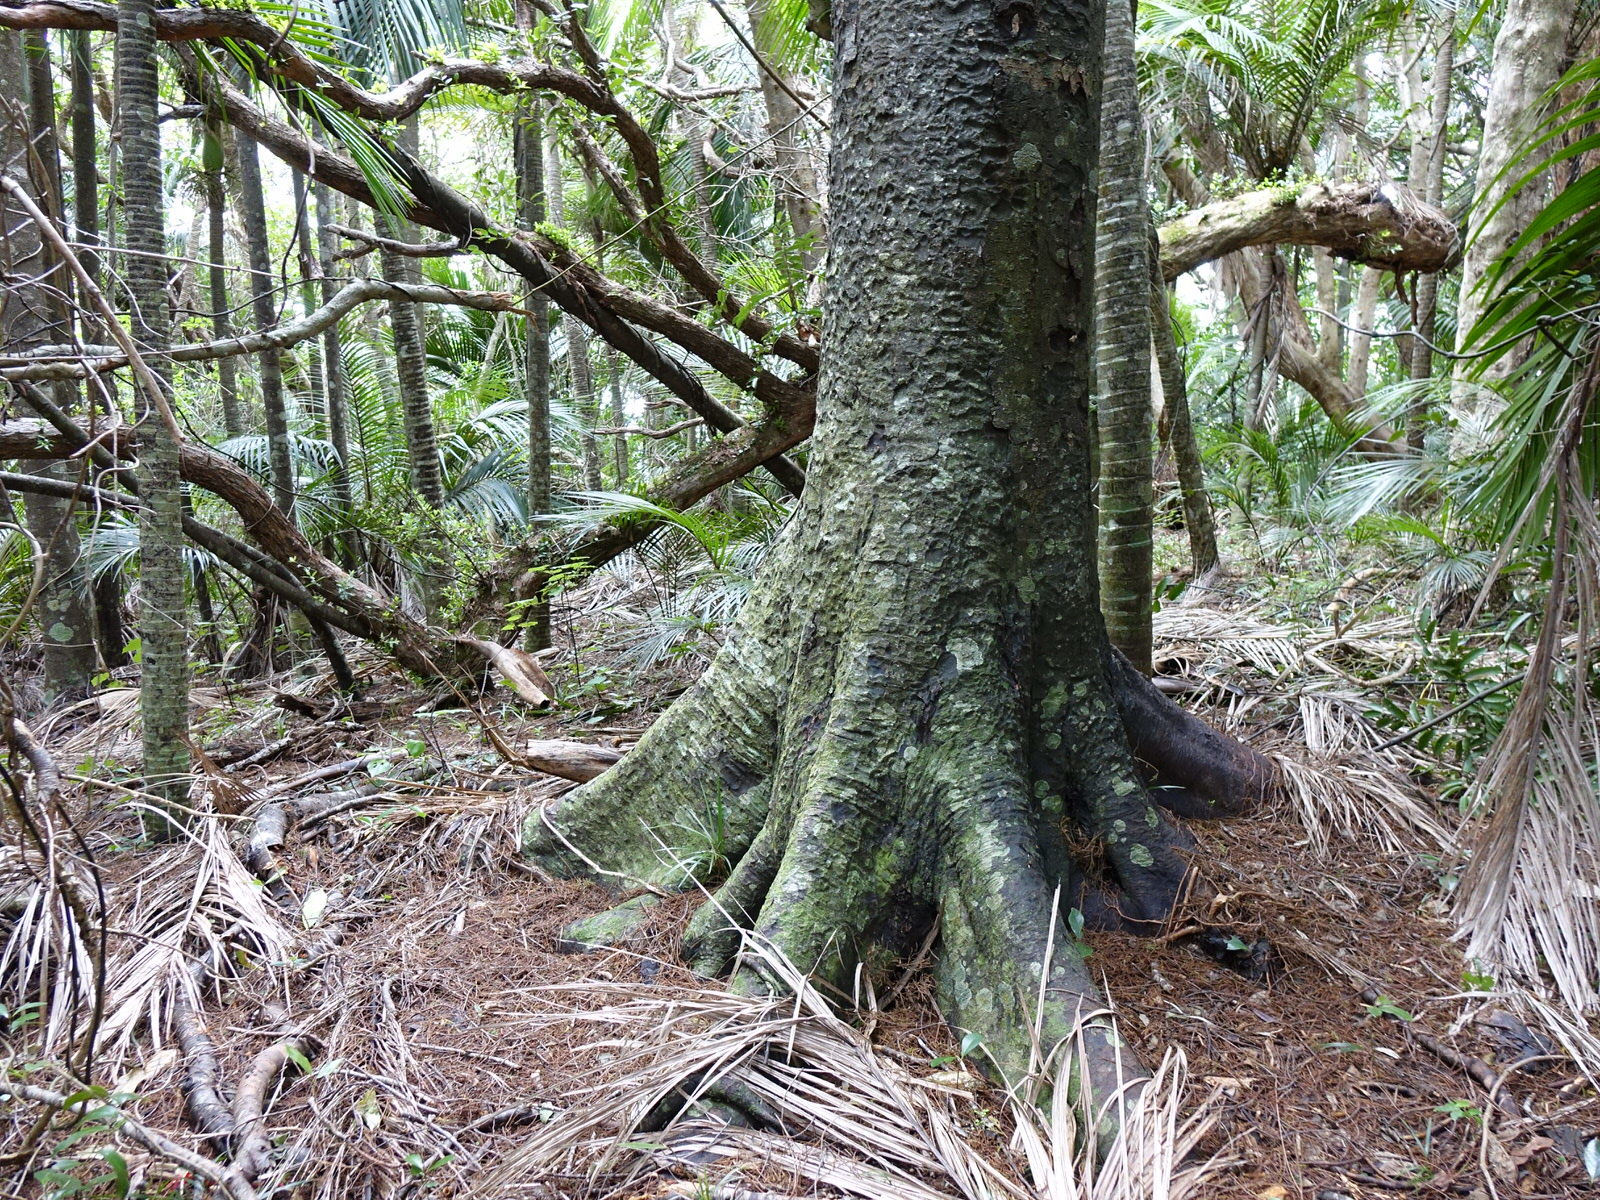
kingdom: Plantae
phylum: Tracheophyta
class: Pinopsida
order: Pinales
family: Podocarpaceae
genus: Dacrycarpus
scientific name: Dacrycarpus dacrydioides
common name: White pine
